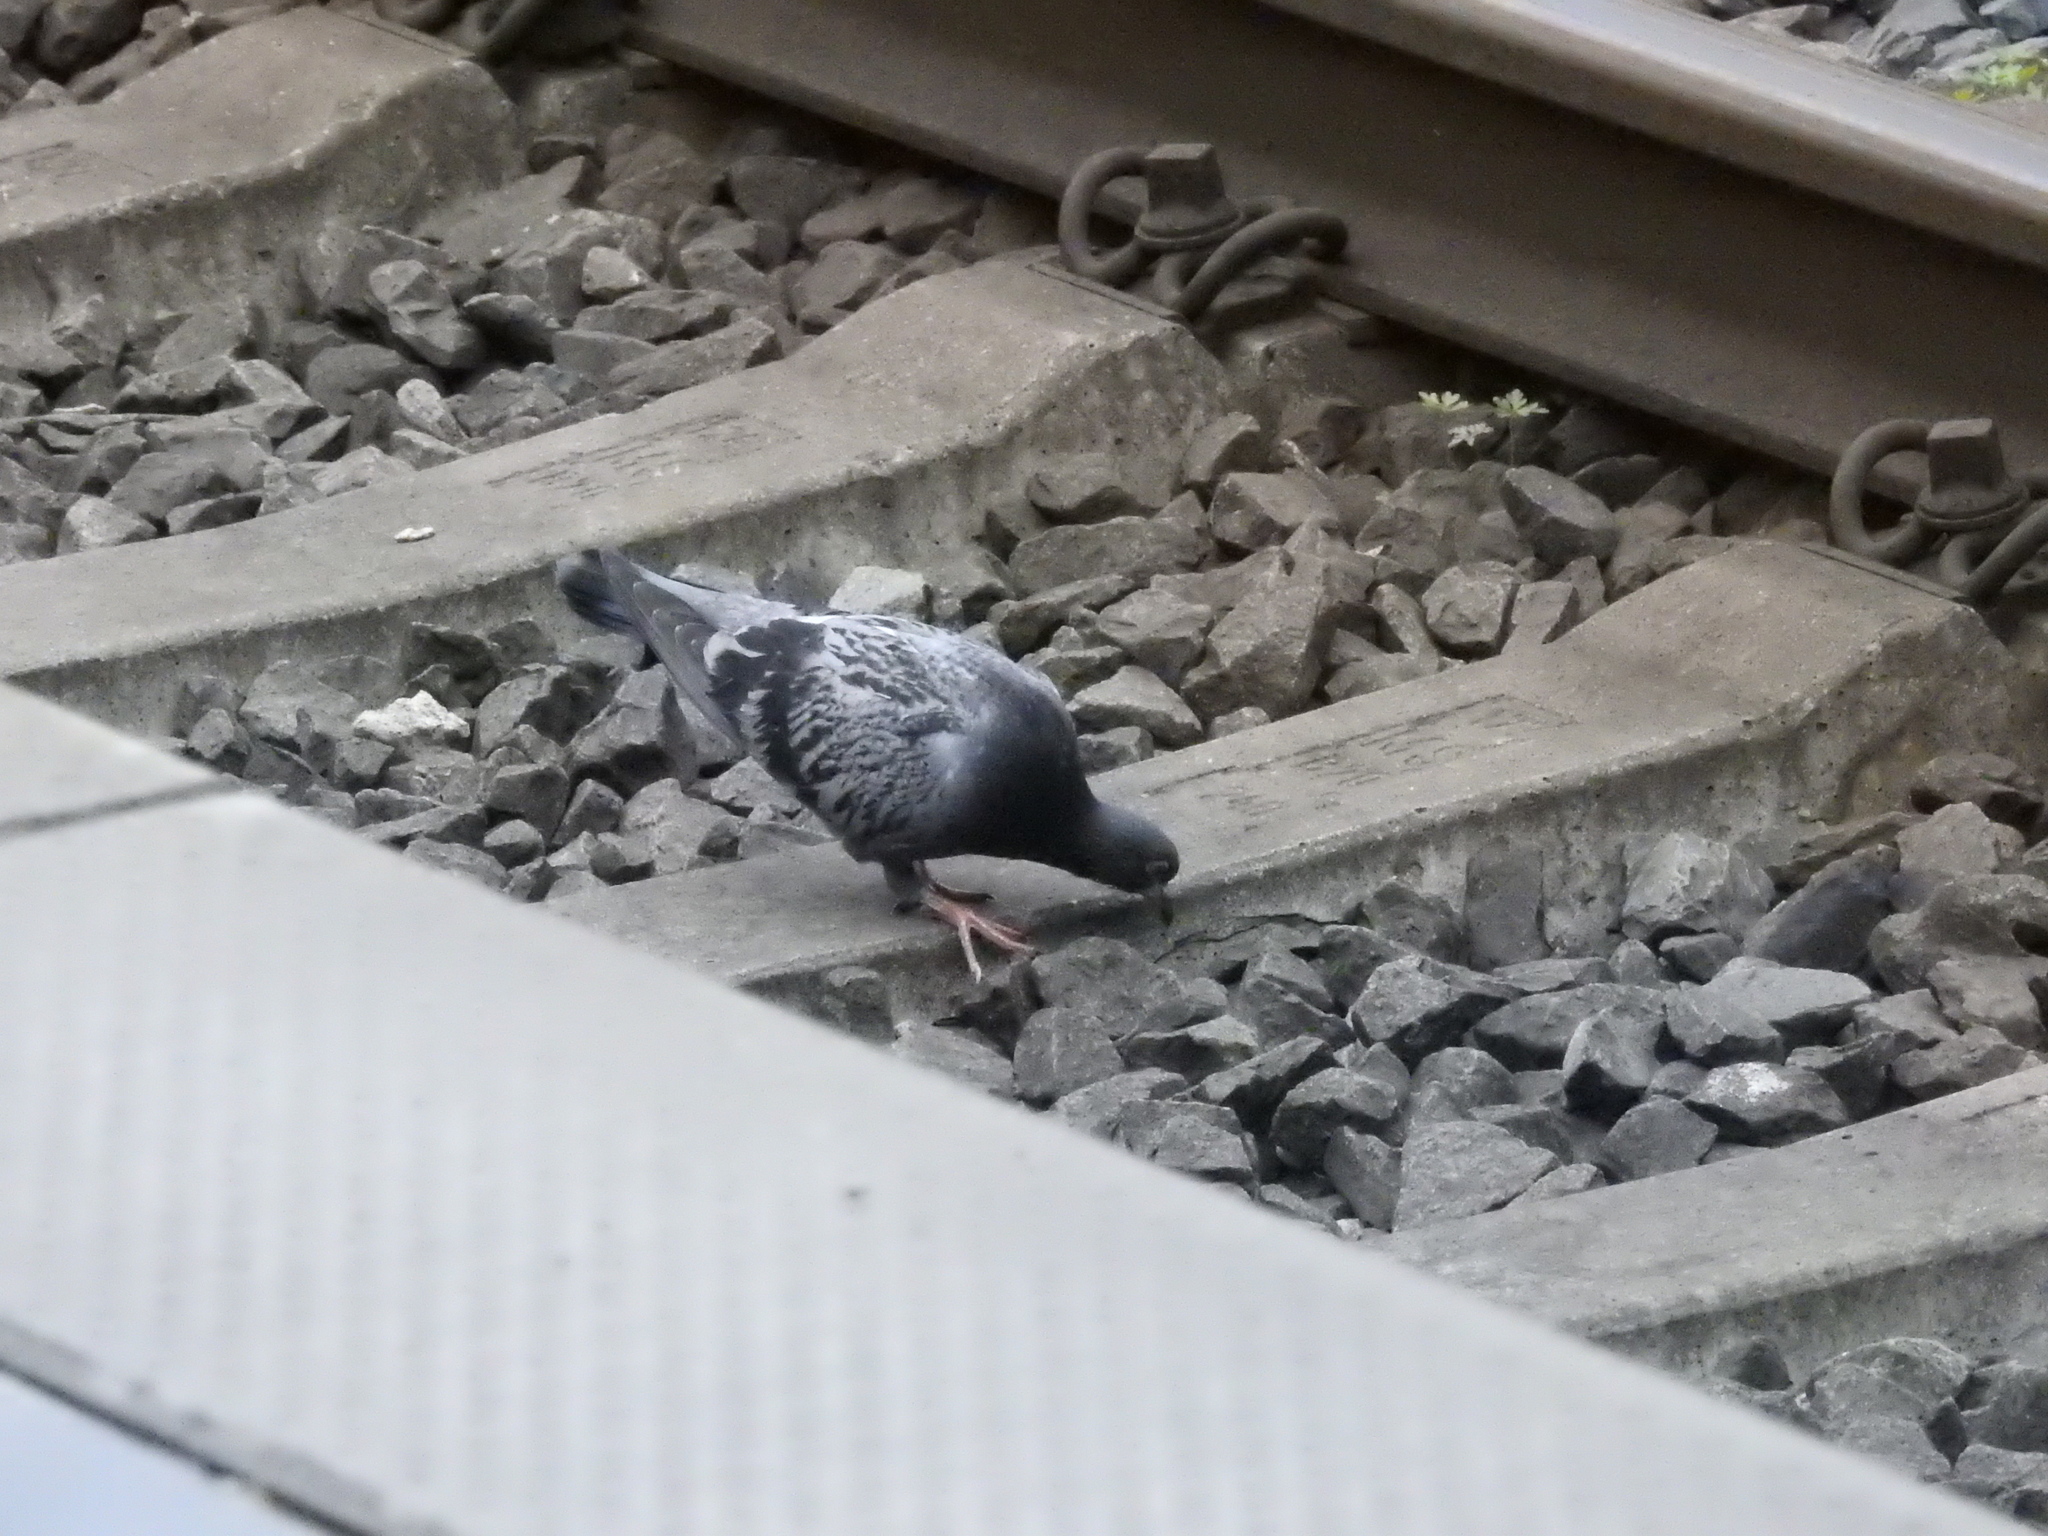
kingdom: Animalia
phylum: Chordata
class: Aves
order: Columbiformes
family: Columbidae
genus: Columba
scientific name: Columba livia
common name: Rock pigeon
